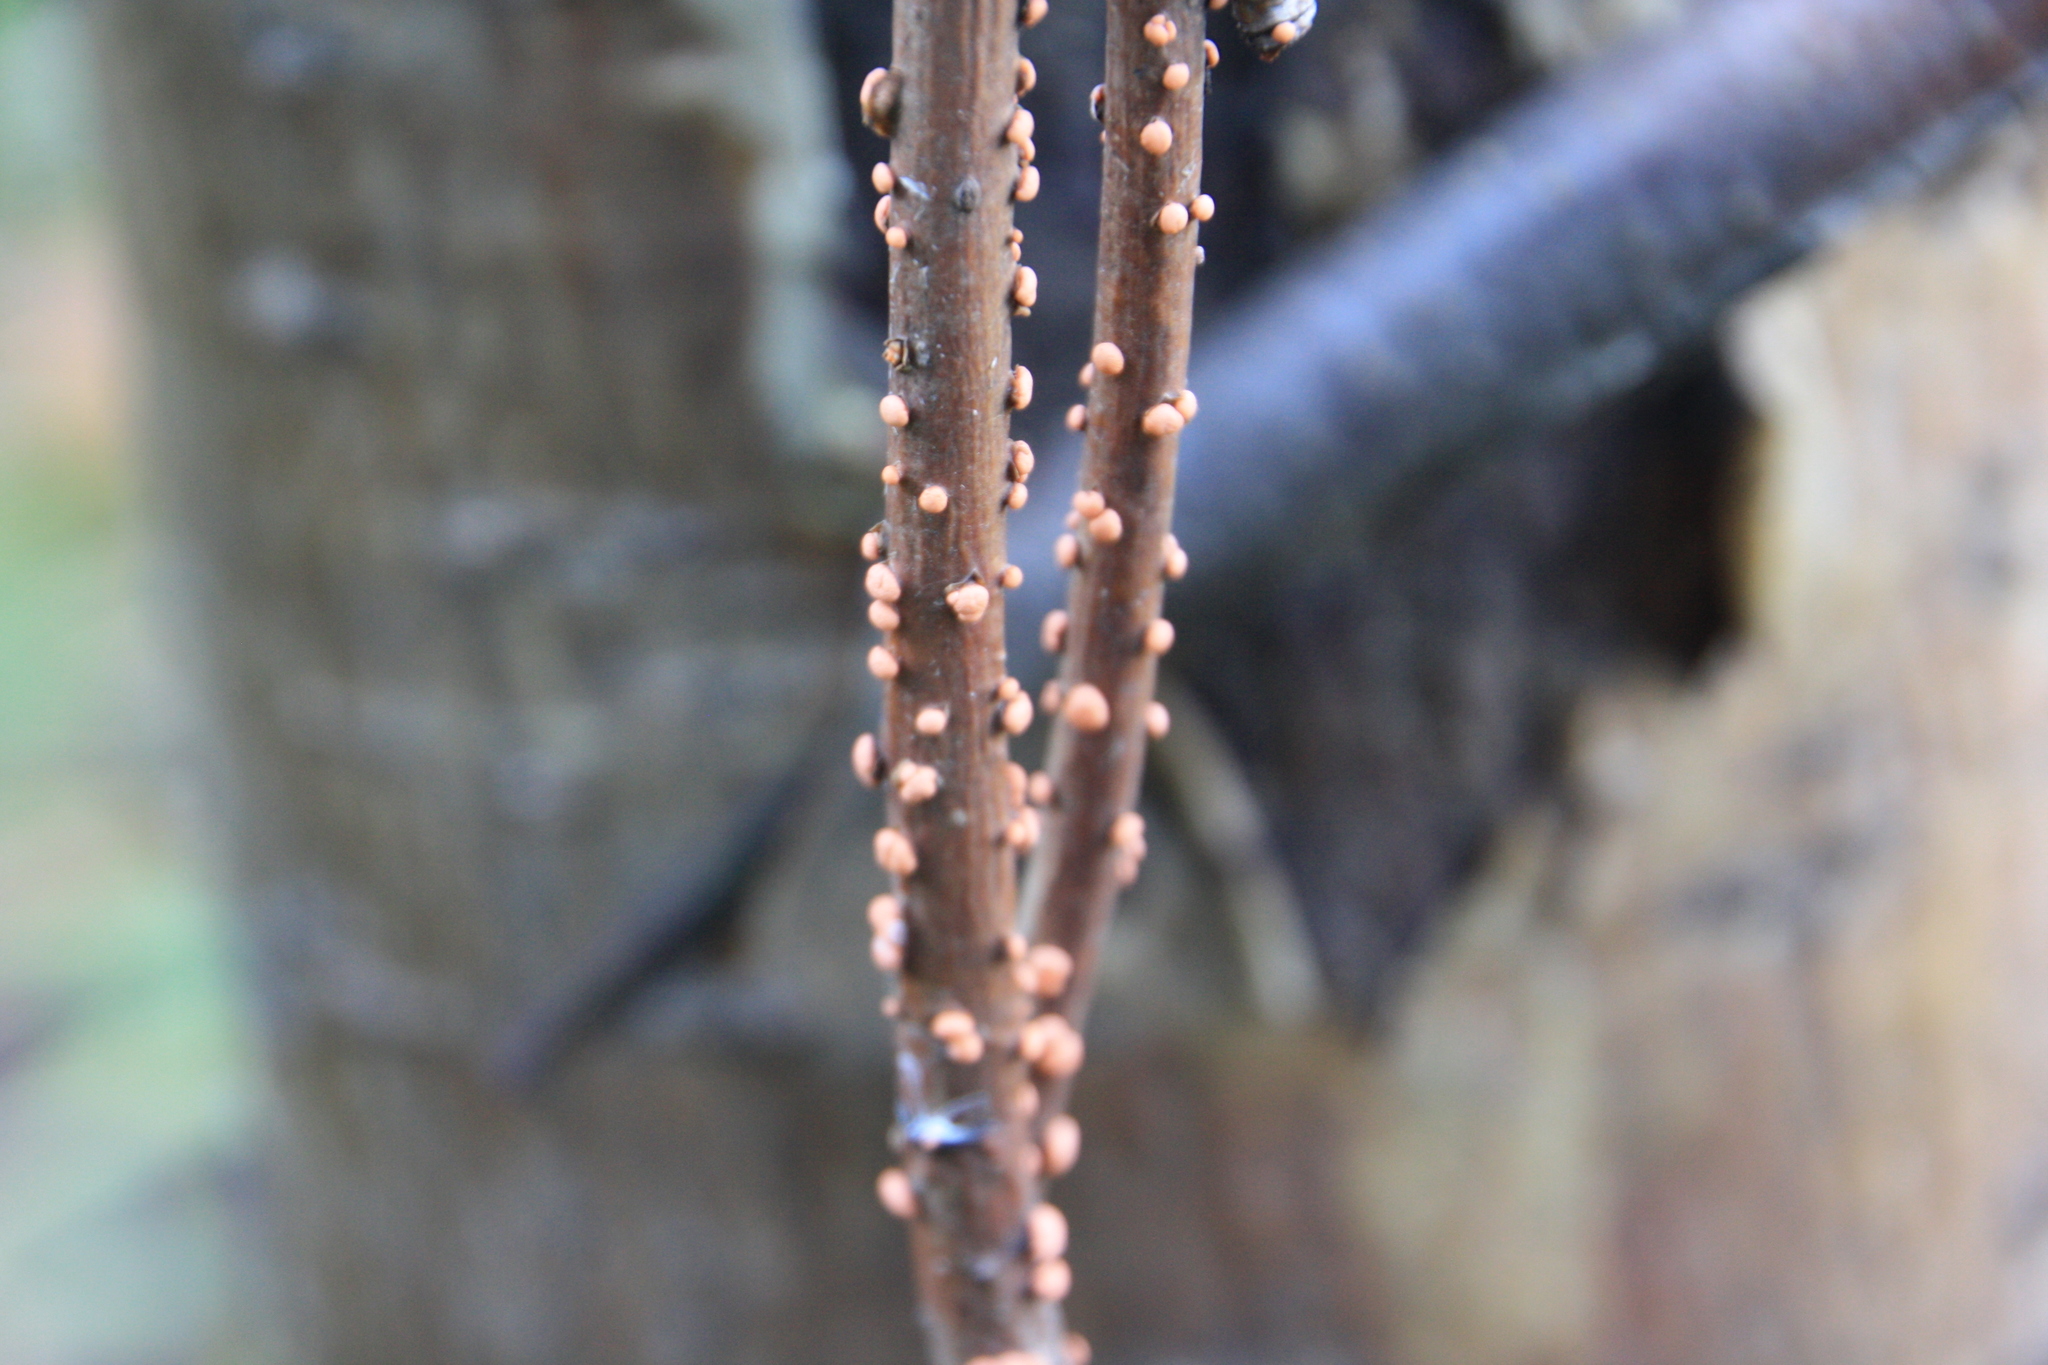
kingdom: Fungi
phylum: Ascomycota
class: Sordariomycetes
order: Hypocreales
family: Nectriaceae
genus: Nectria
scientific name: Nectria cinnabarina
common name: Coral spot
